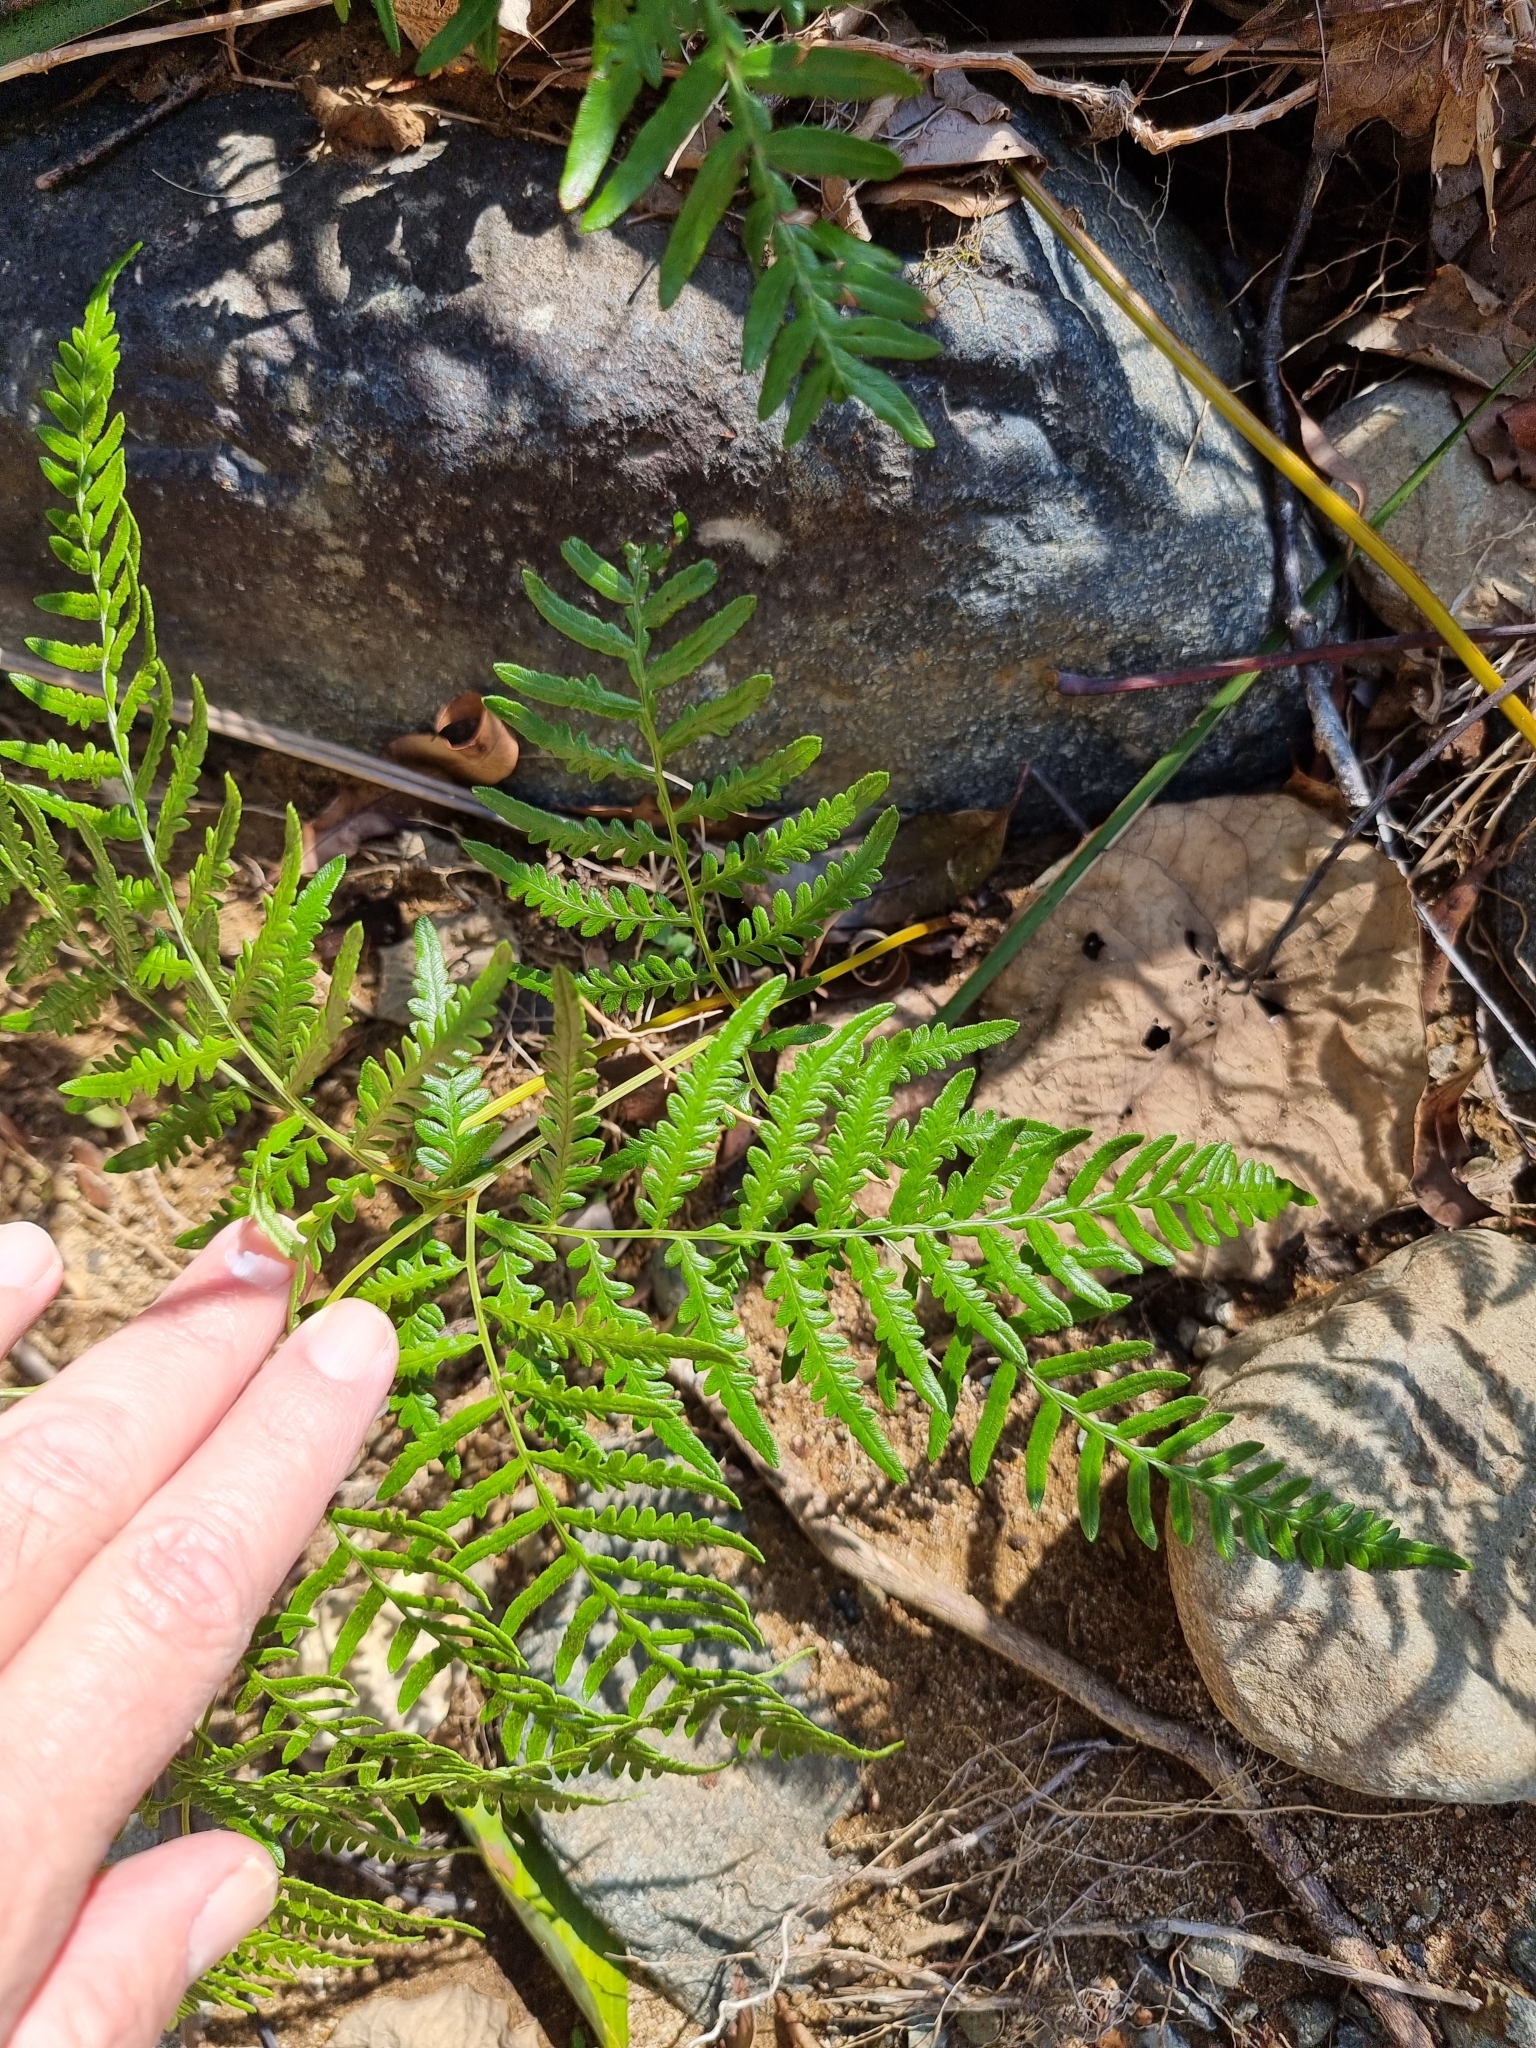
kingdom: Plantae
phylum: Tracheophyta
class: Polypodiopsida
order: Polypodiales
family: Dennstaedtiaceae
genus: Pteridium
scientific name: Pteridium esculentum
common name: Bracken fern
